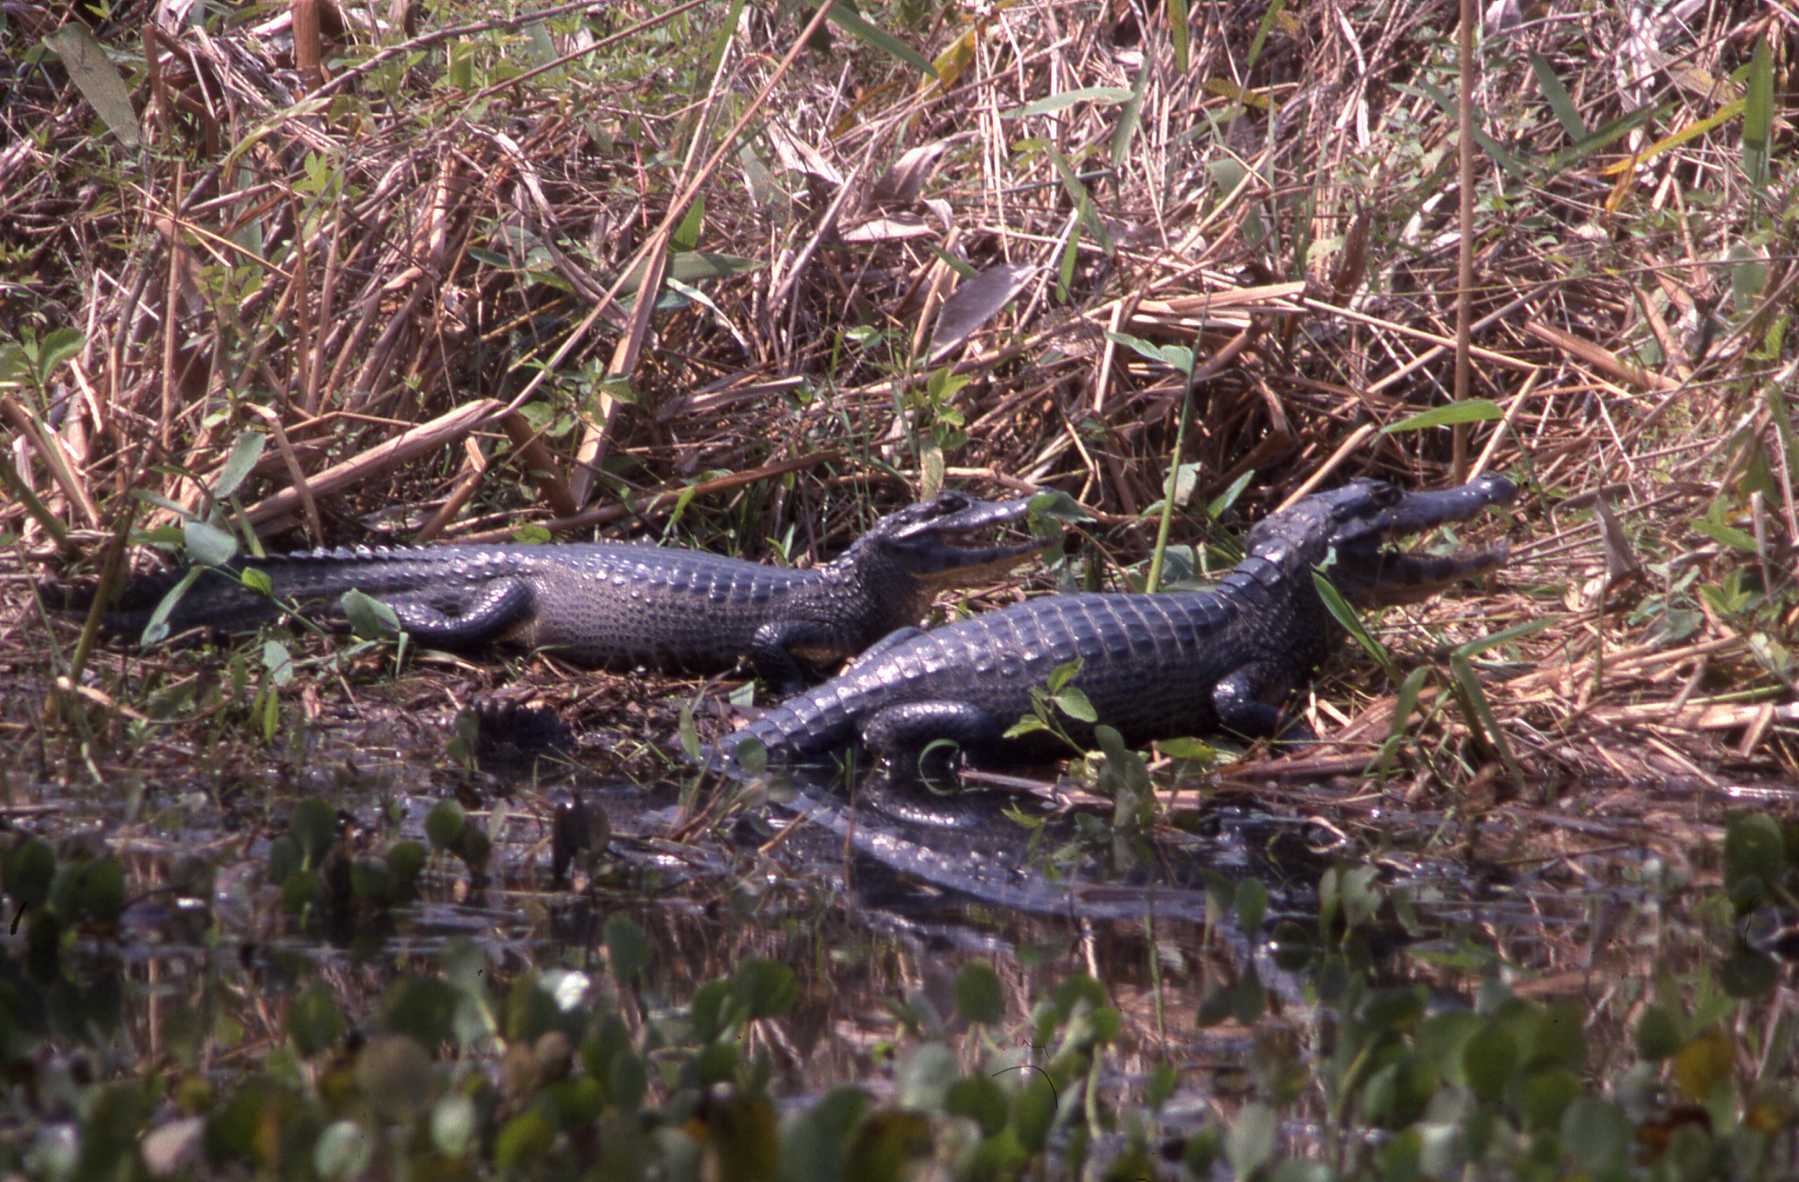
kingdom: Animalia
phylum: Chordata
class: Crocodylia
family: Alligatoridae
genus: Caiman
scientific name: Caiman yacare
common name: Yacare caiman
